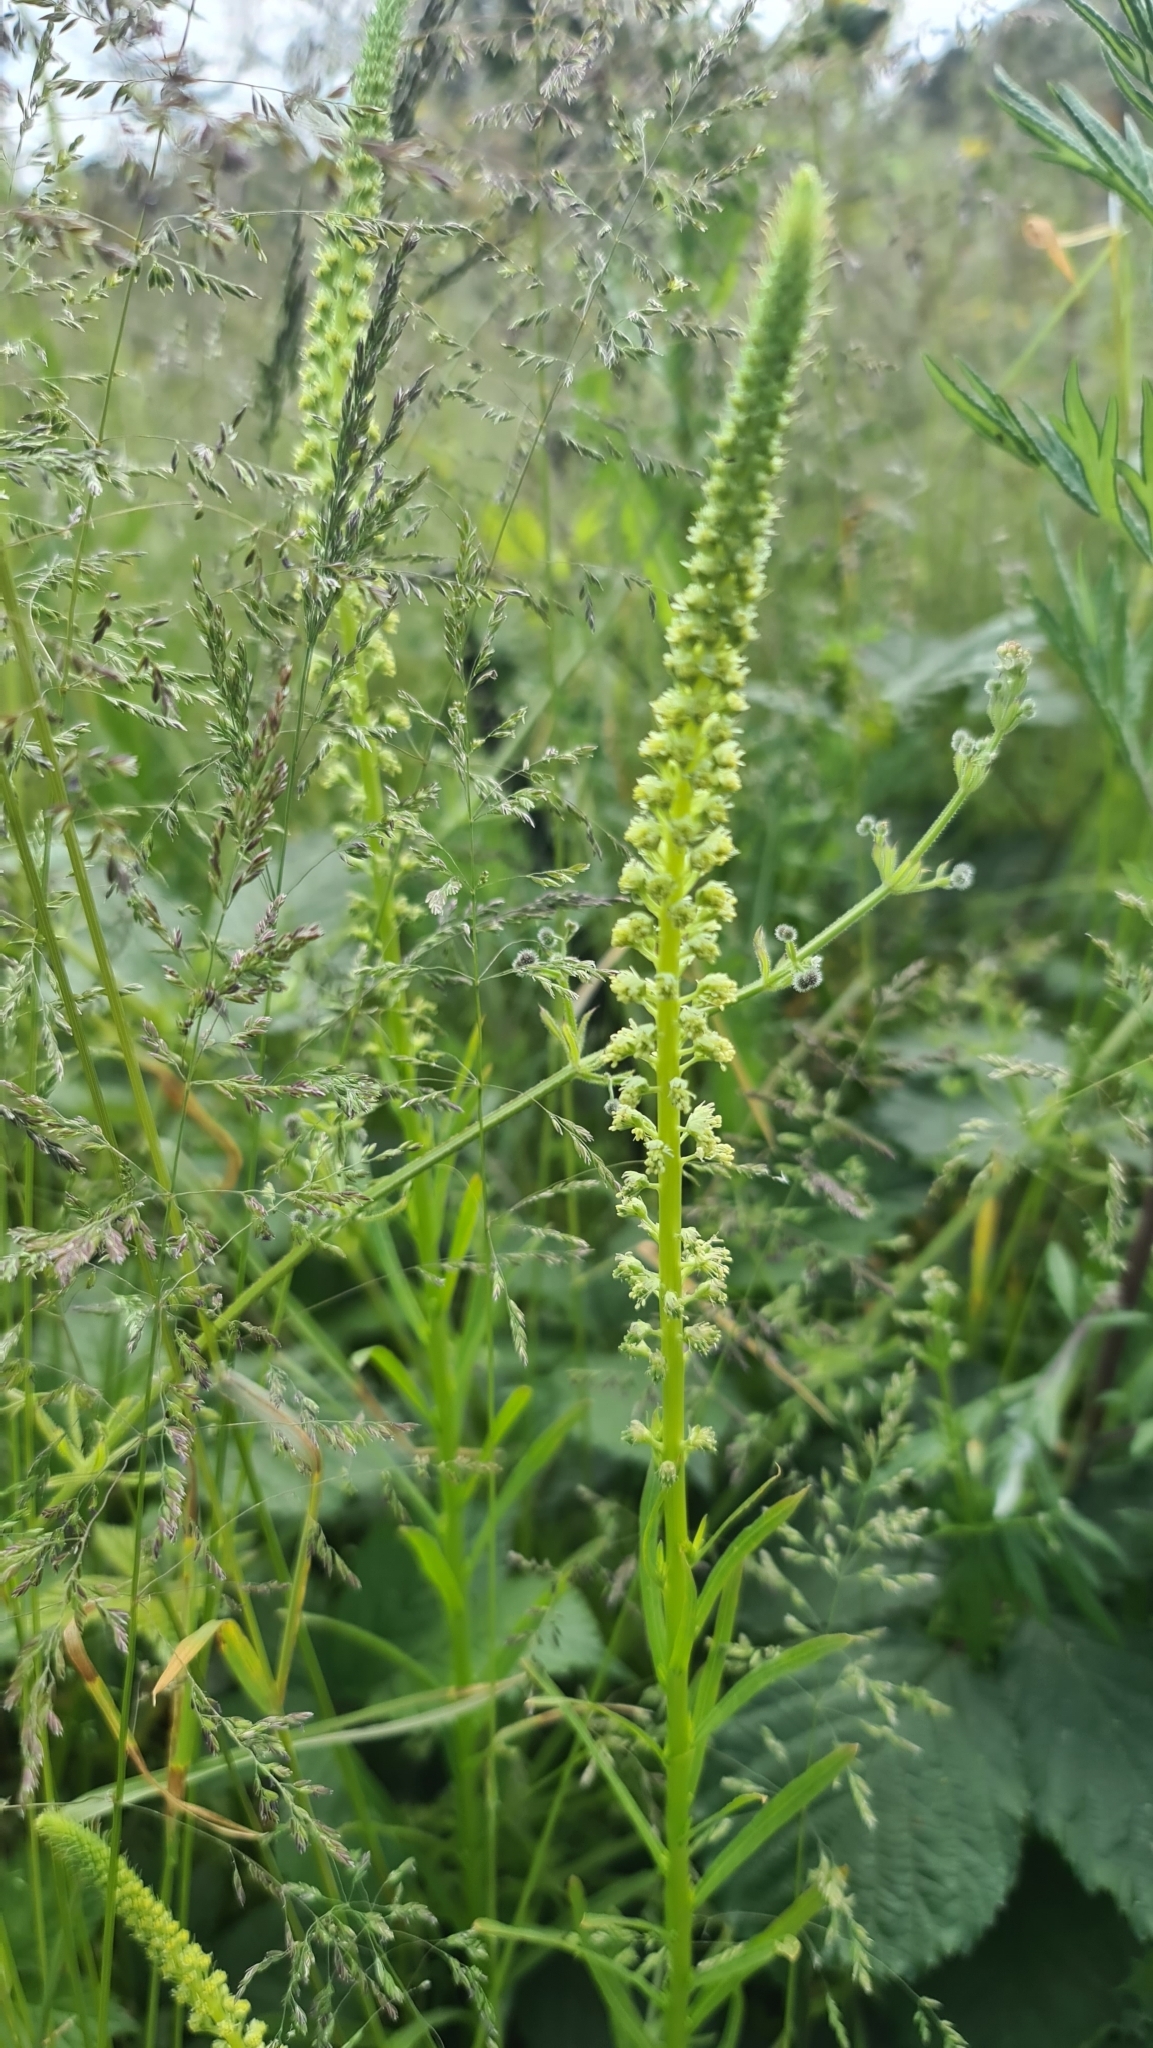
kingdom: Plantae
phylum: Tracheophyta
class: Magnoliopsida
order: Brassicales
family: Resedaceae
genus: Reseda
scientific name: Reseda luteola
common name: Weld
